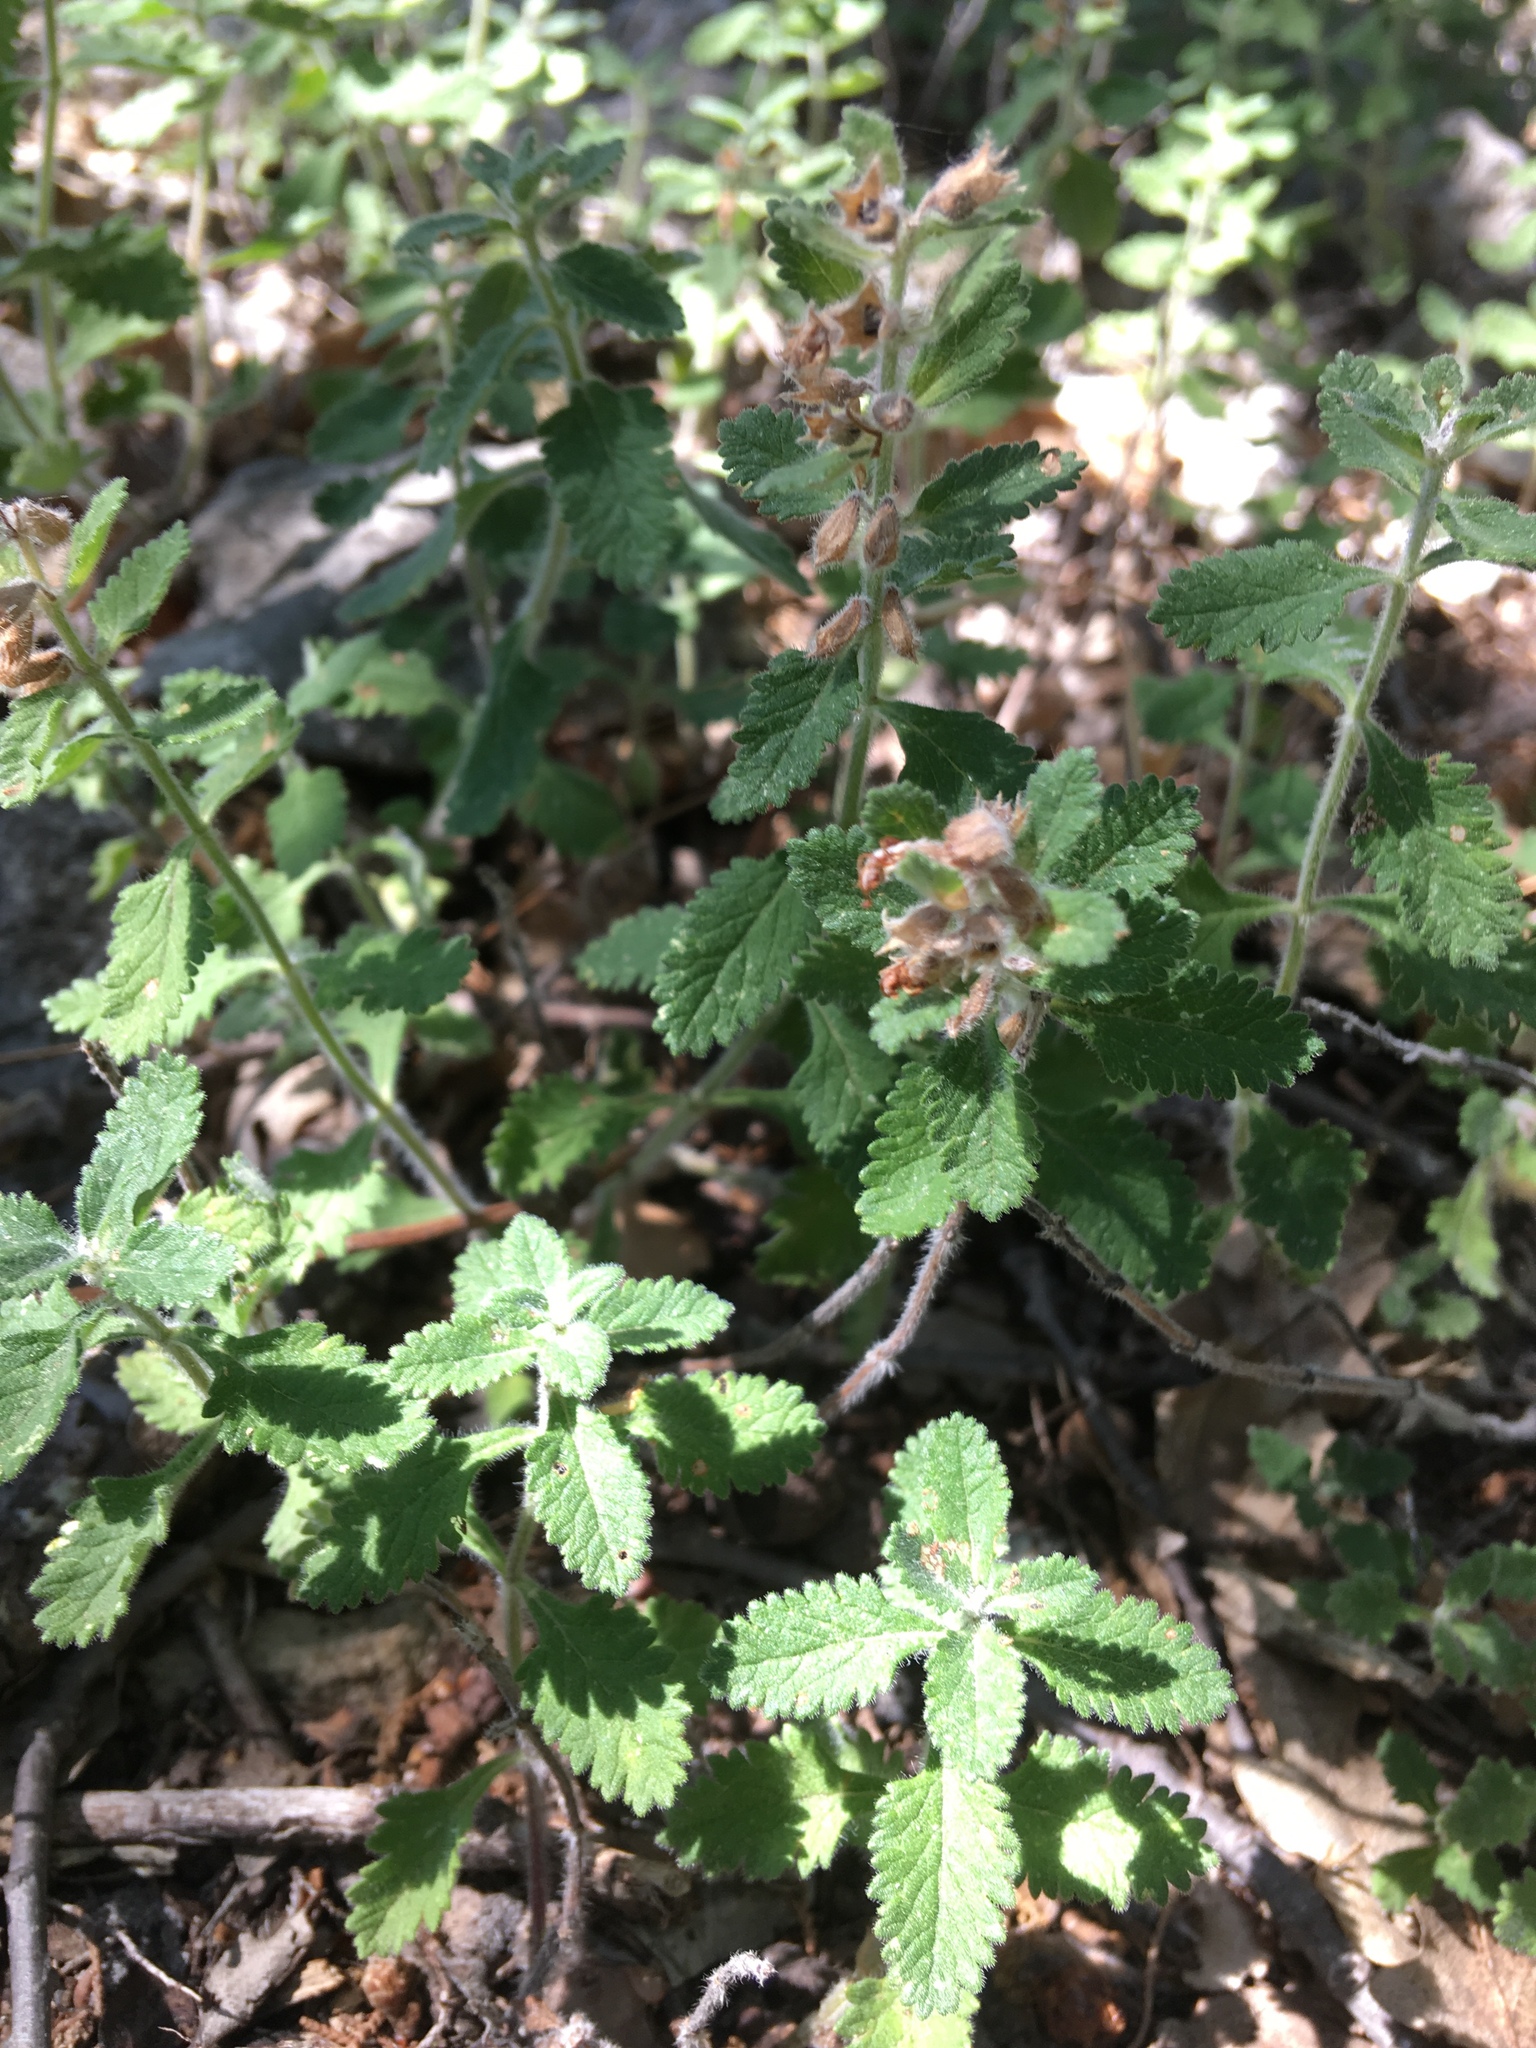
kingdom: Plantae
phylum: Tracheophyta
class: Magnoliopsida
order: Lamiales
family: Lamiaceae
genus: Teucrium
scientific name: Teucrium chamaedrys
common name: Wall germander
